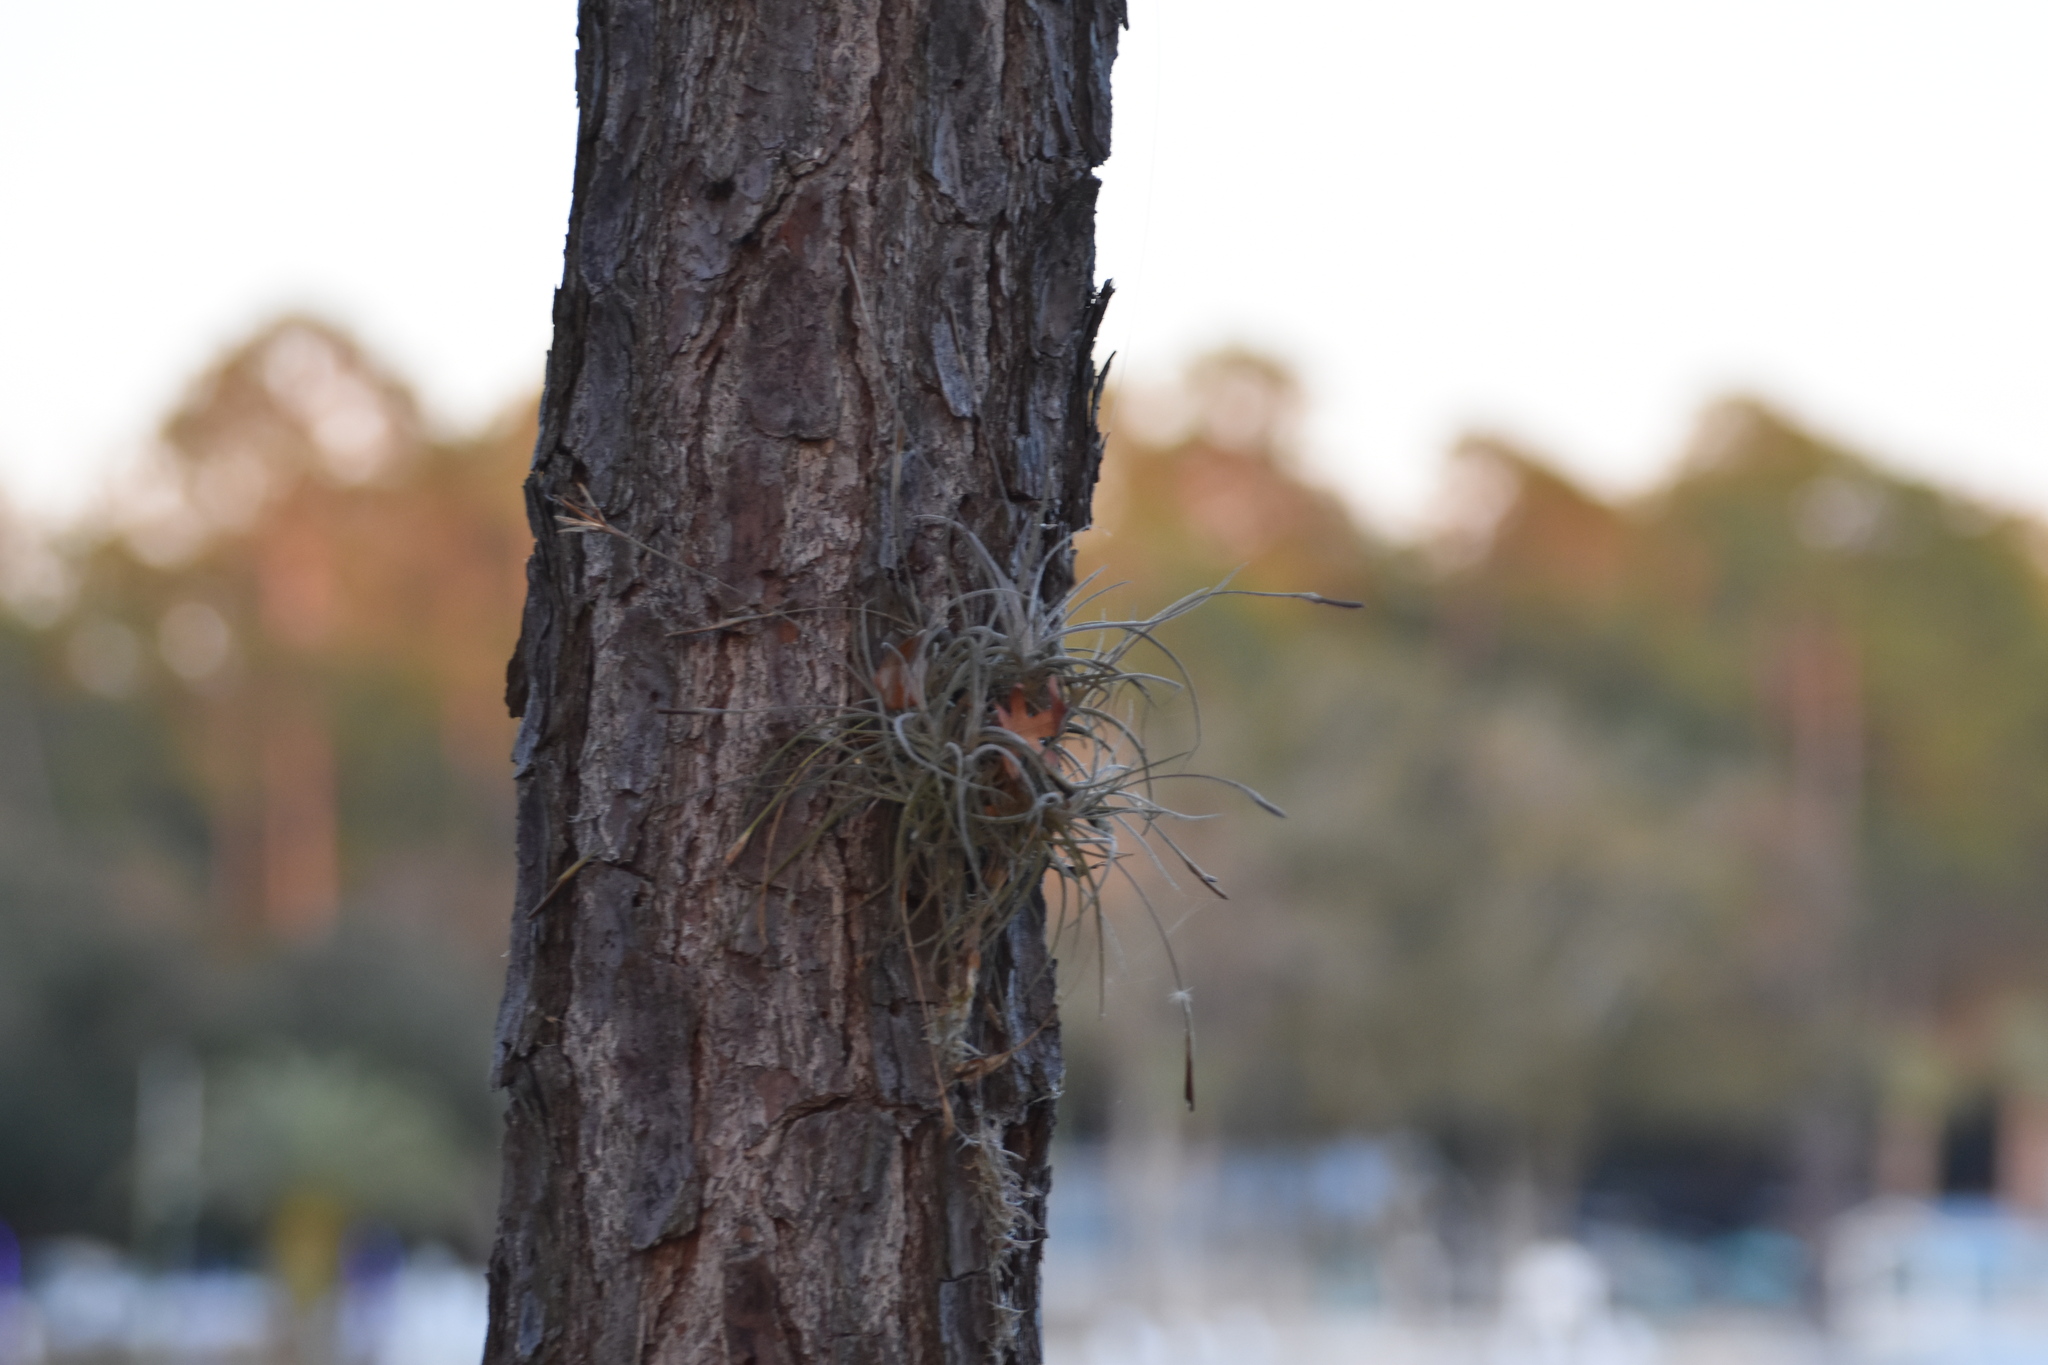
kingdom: Plantae
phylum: Tracheophyta
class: Liliopsida
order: Poales
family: Bromeliaceae
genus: Tillandsia
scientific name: Tillandsia recurvata
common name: Small ballmoss
